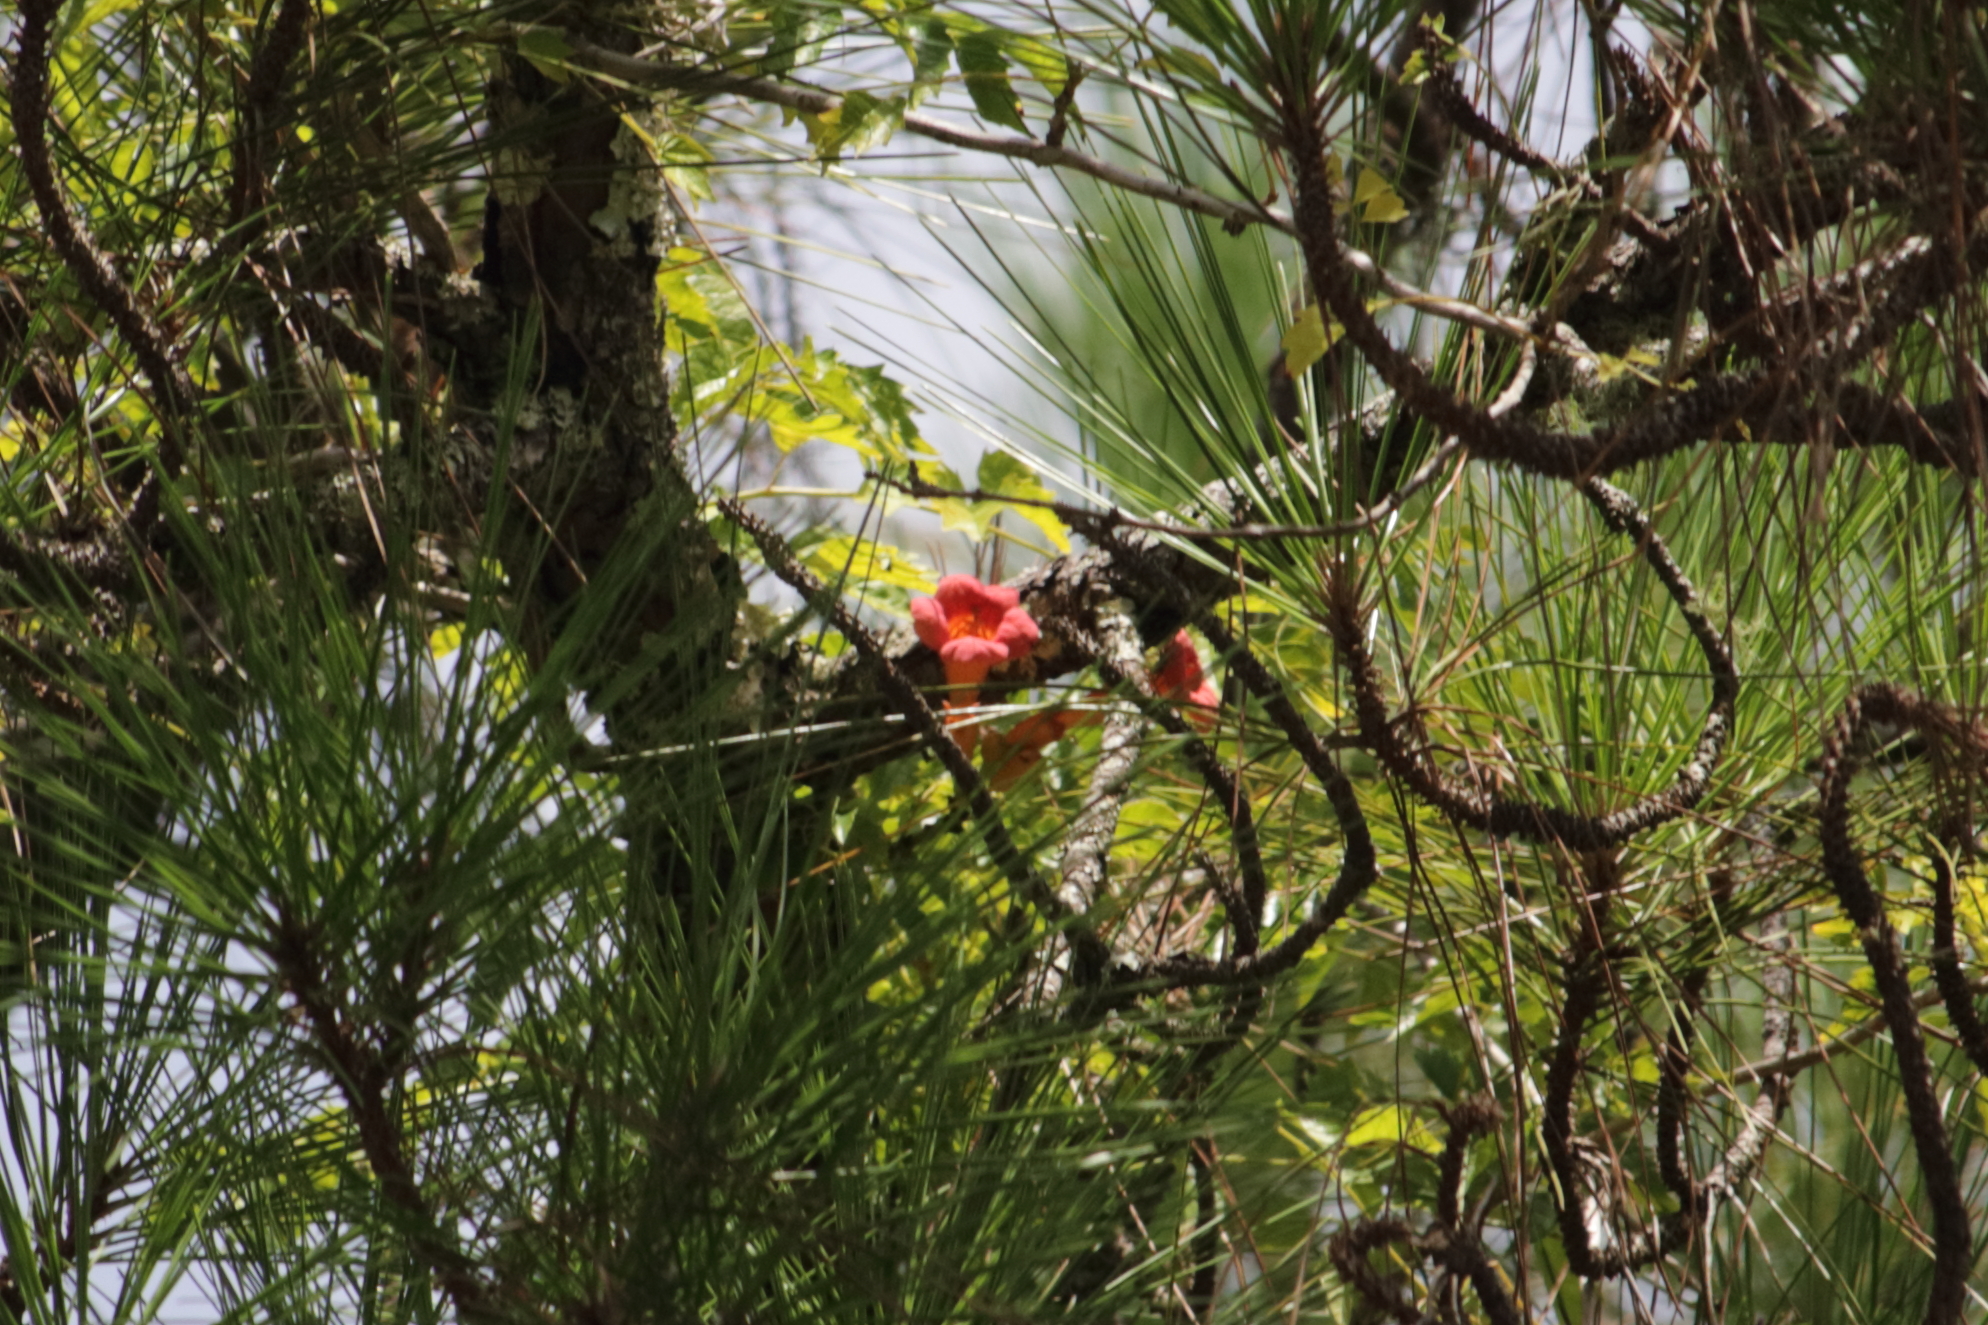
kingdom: Plantae
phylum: Tracheophyta
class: Magnoliopsida
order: Lamiales
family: Bignoniaceae
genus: Campsis
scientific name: Campsis radicans
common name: Trumpet-creeper
